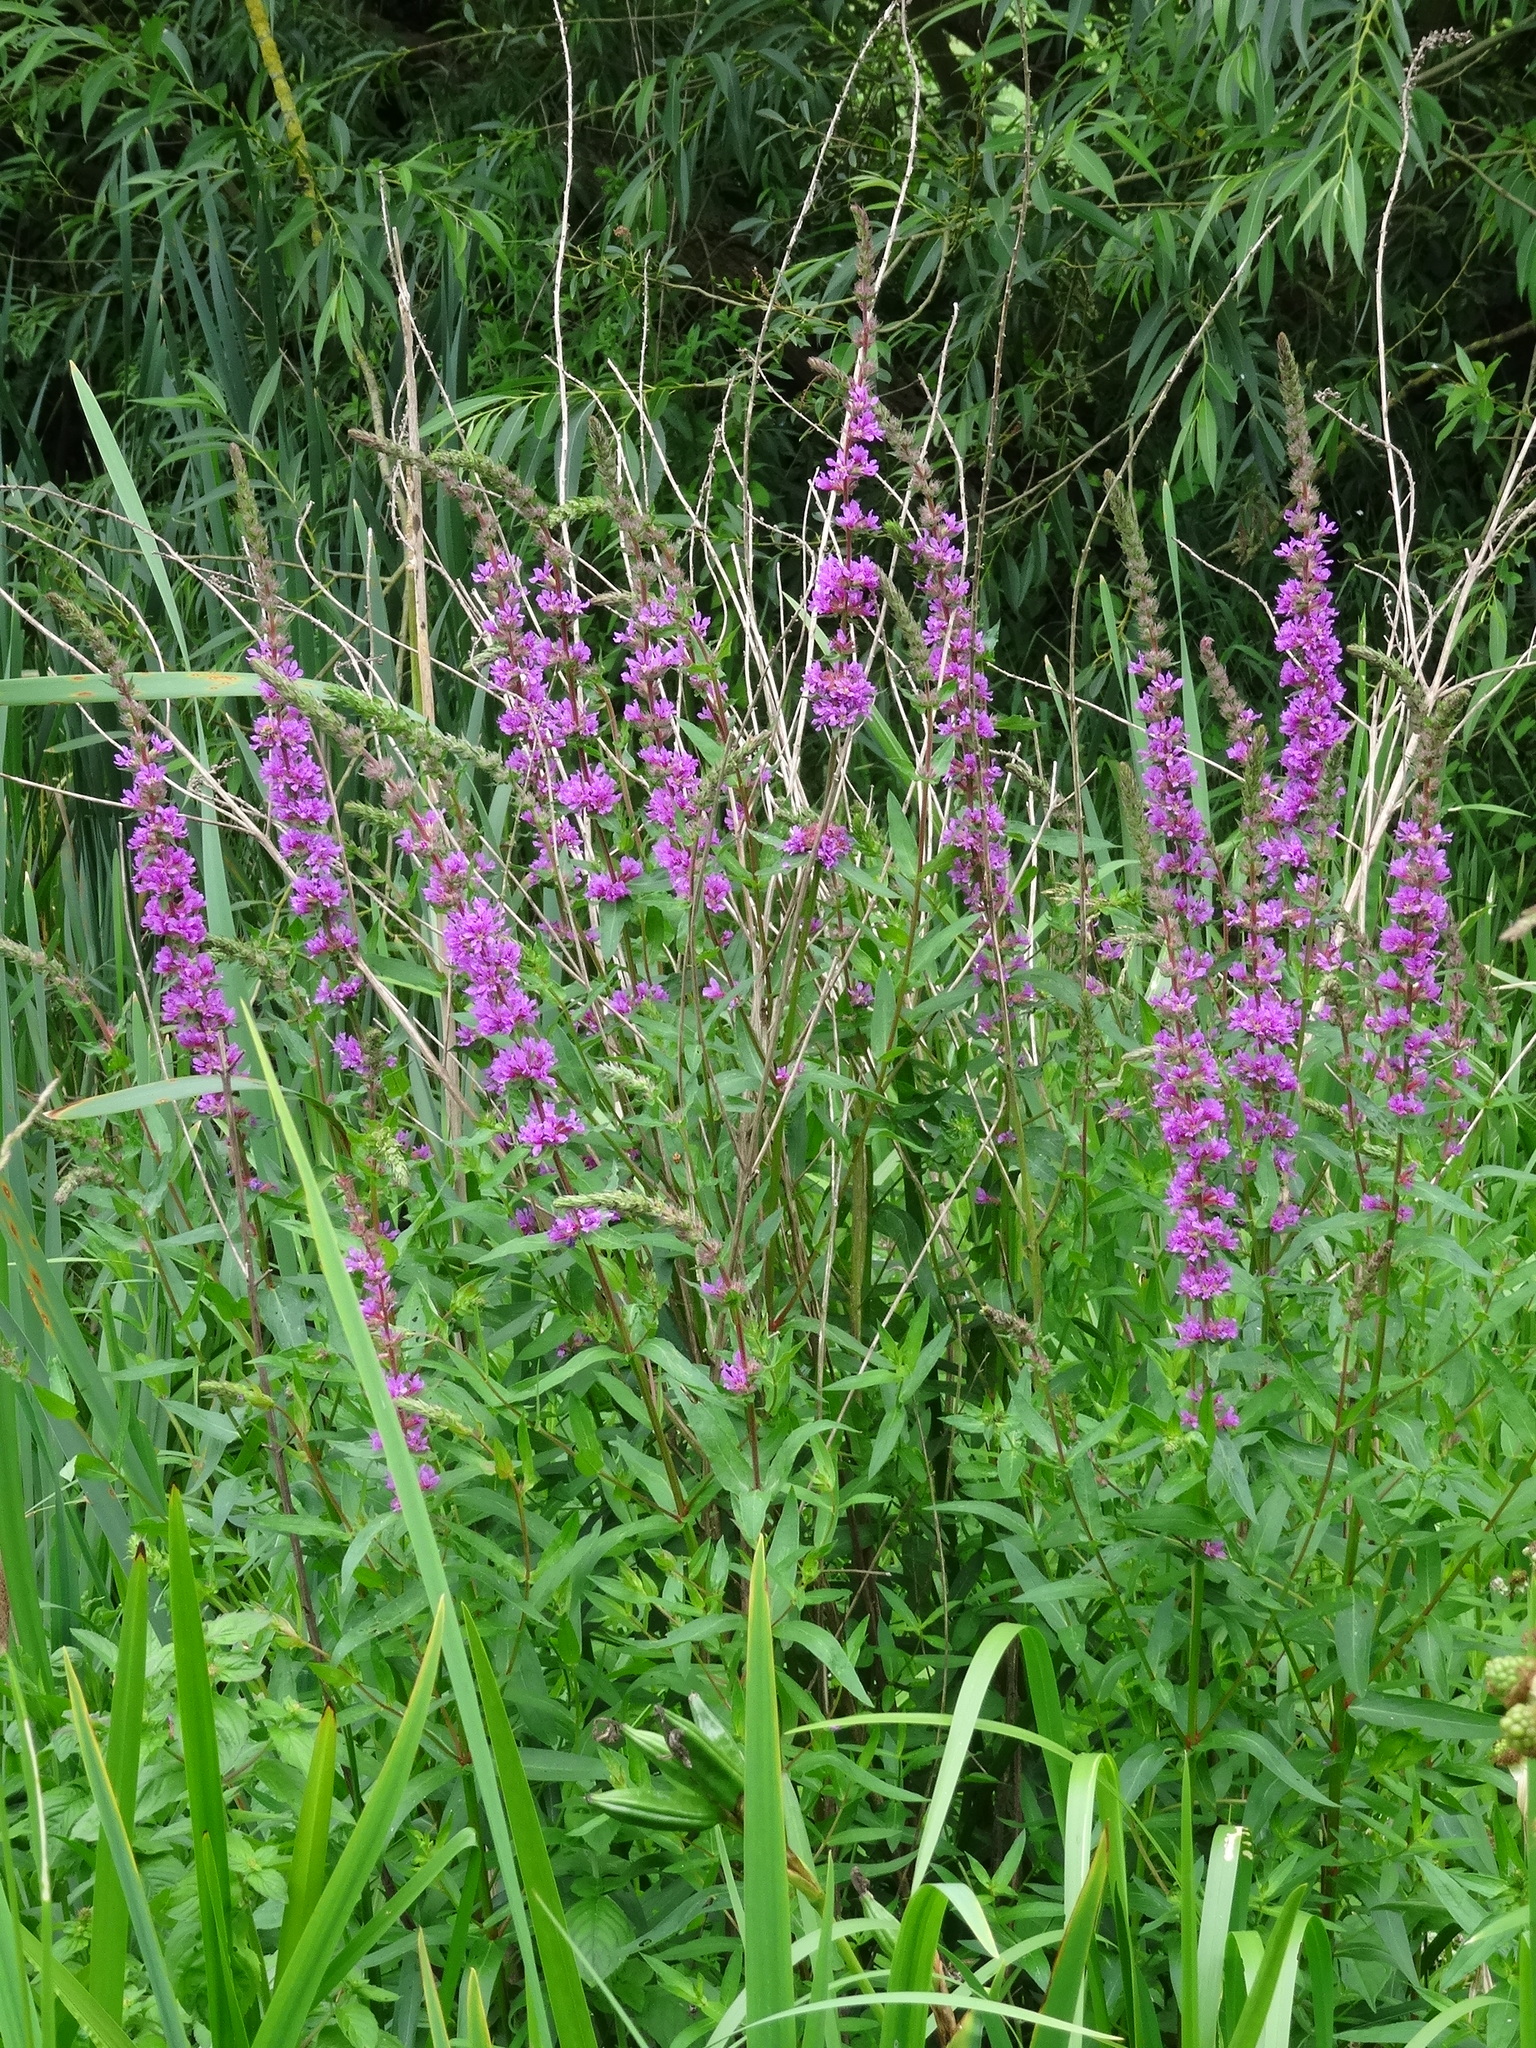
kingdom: Plantae
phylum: Tracheophyta
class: Magnoliopsida
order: Myrtales
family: Lythraceae
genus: Lythrum
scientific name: Lythrum salicaria
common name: Purple loosestrife
